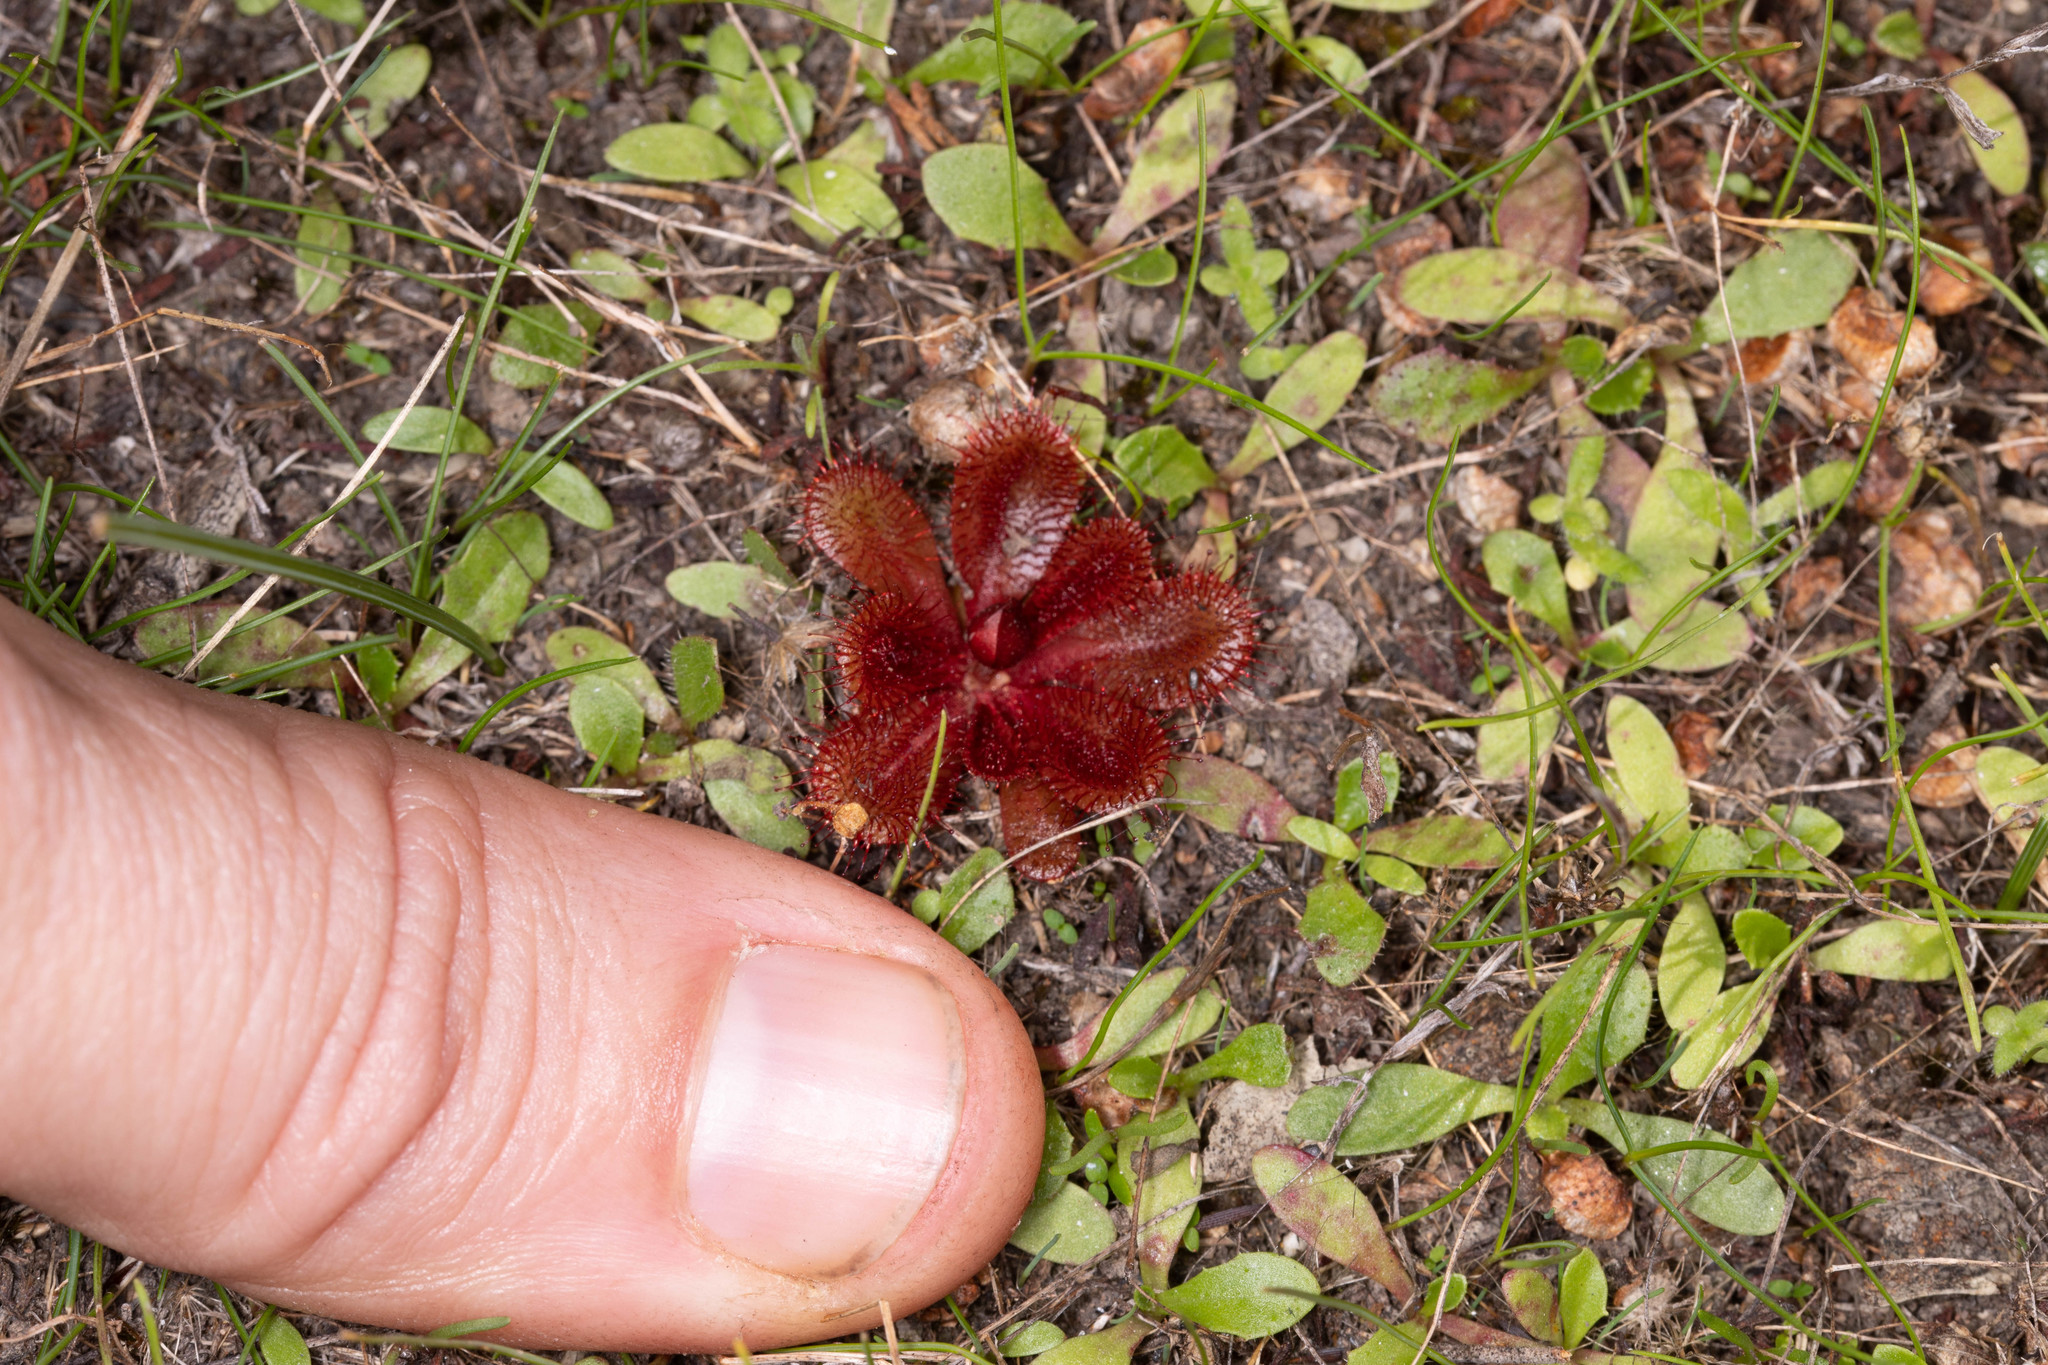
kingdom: Plantae
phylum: Tracheophyta
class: Magnoliopsida
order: Caryophyllales
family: Droseraceae
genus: Drosera
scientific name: Drosera rosulata
